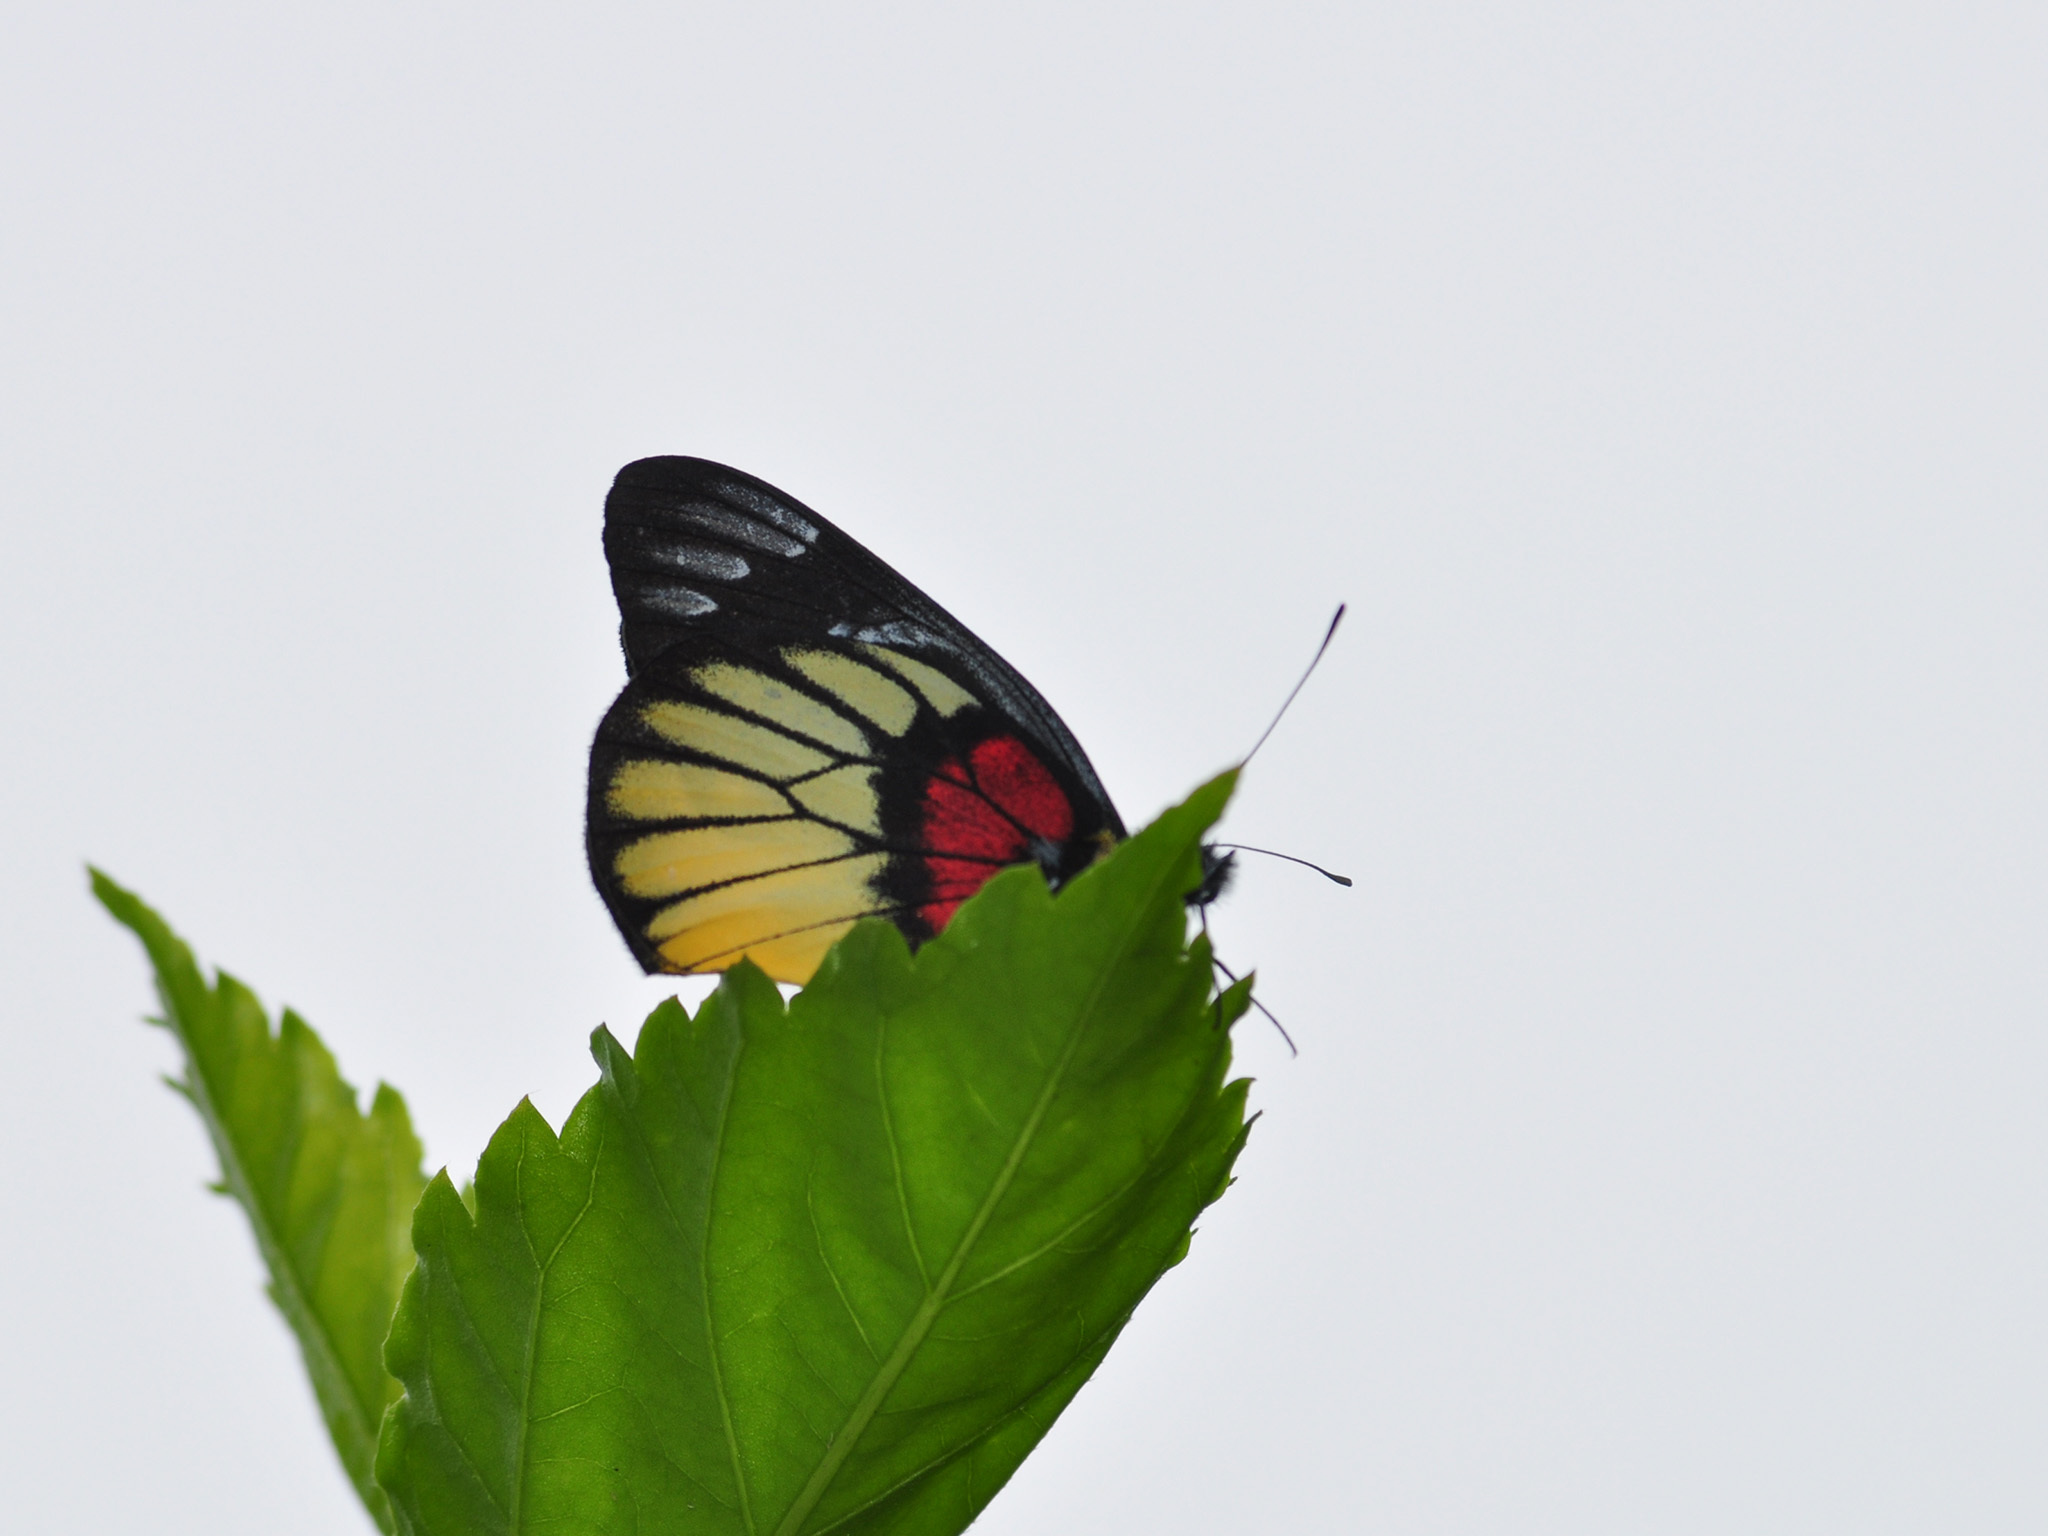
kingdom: Animalia
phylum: Arthropoda
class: Insecta
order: Lepidoptera
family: Pieridae
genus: Delias
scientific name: Delias ninus
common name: Malayan jezebel
